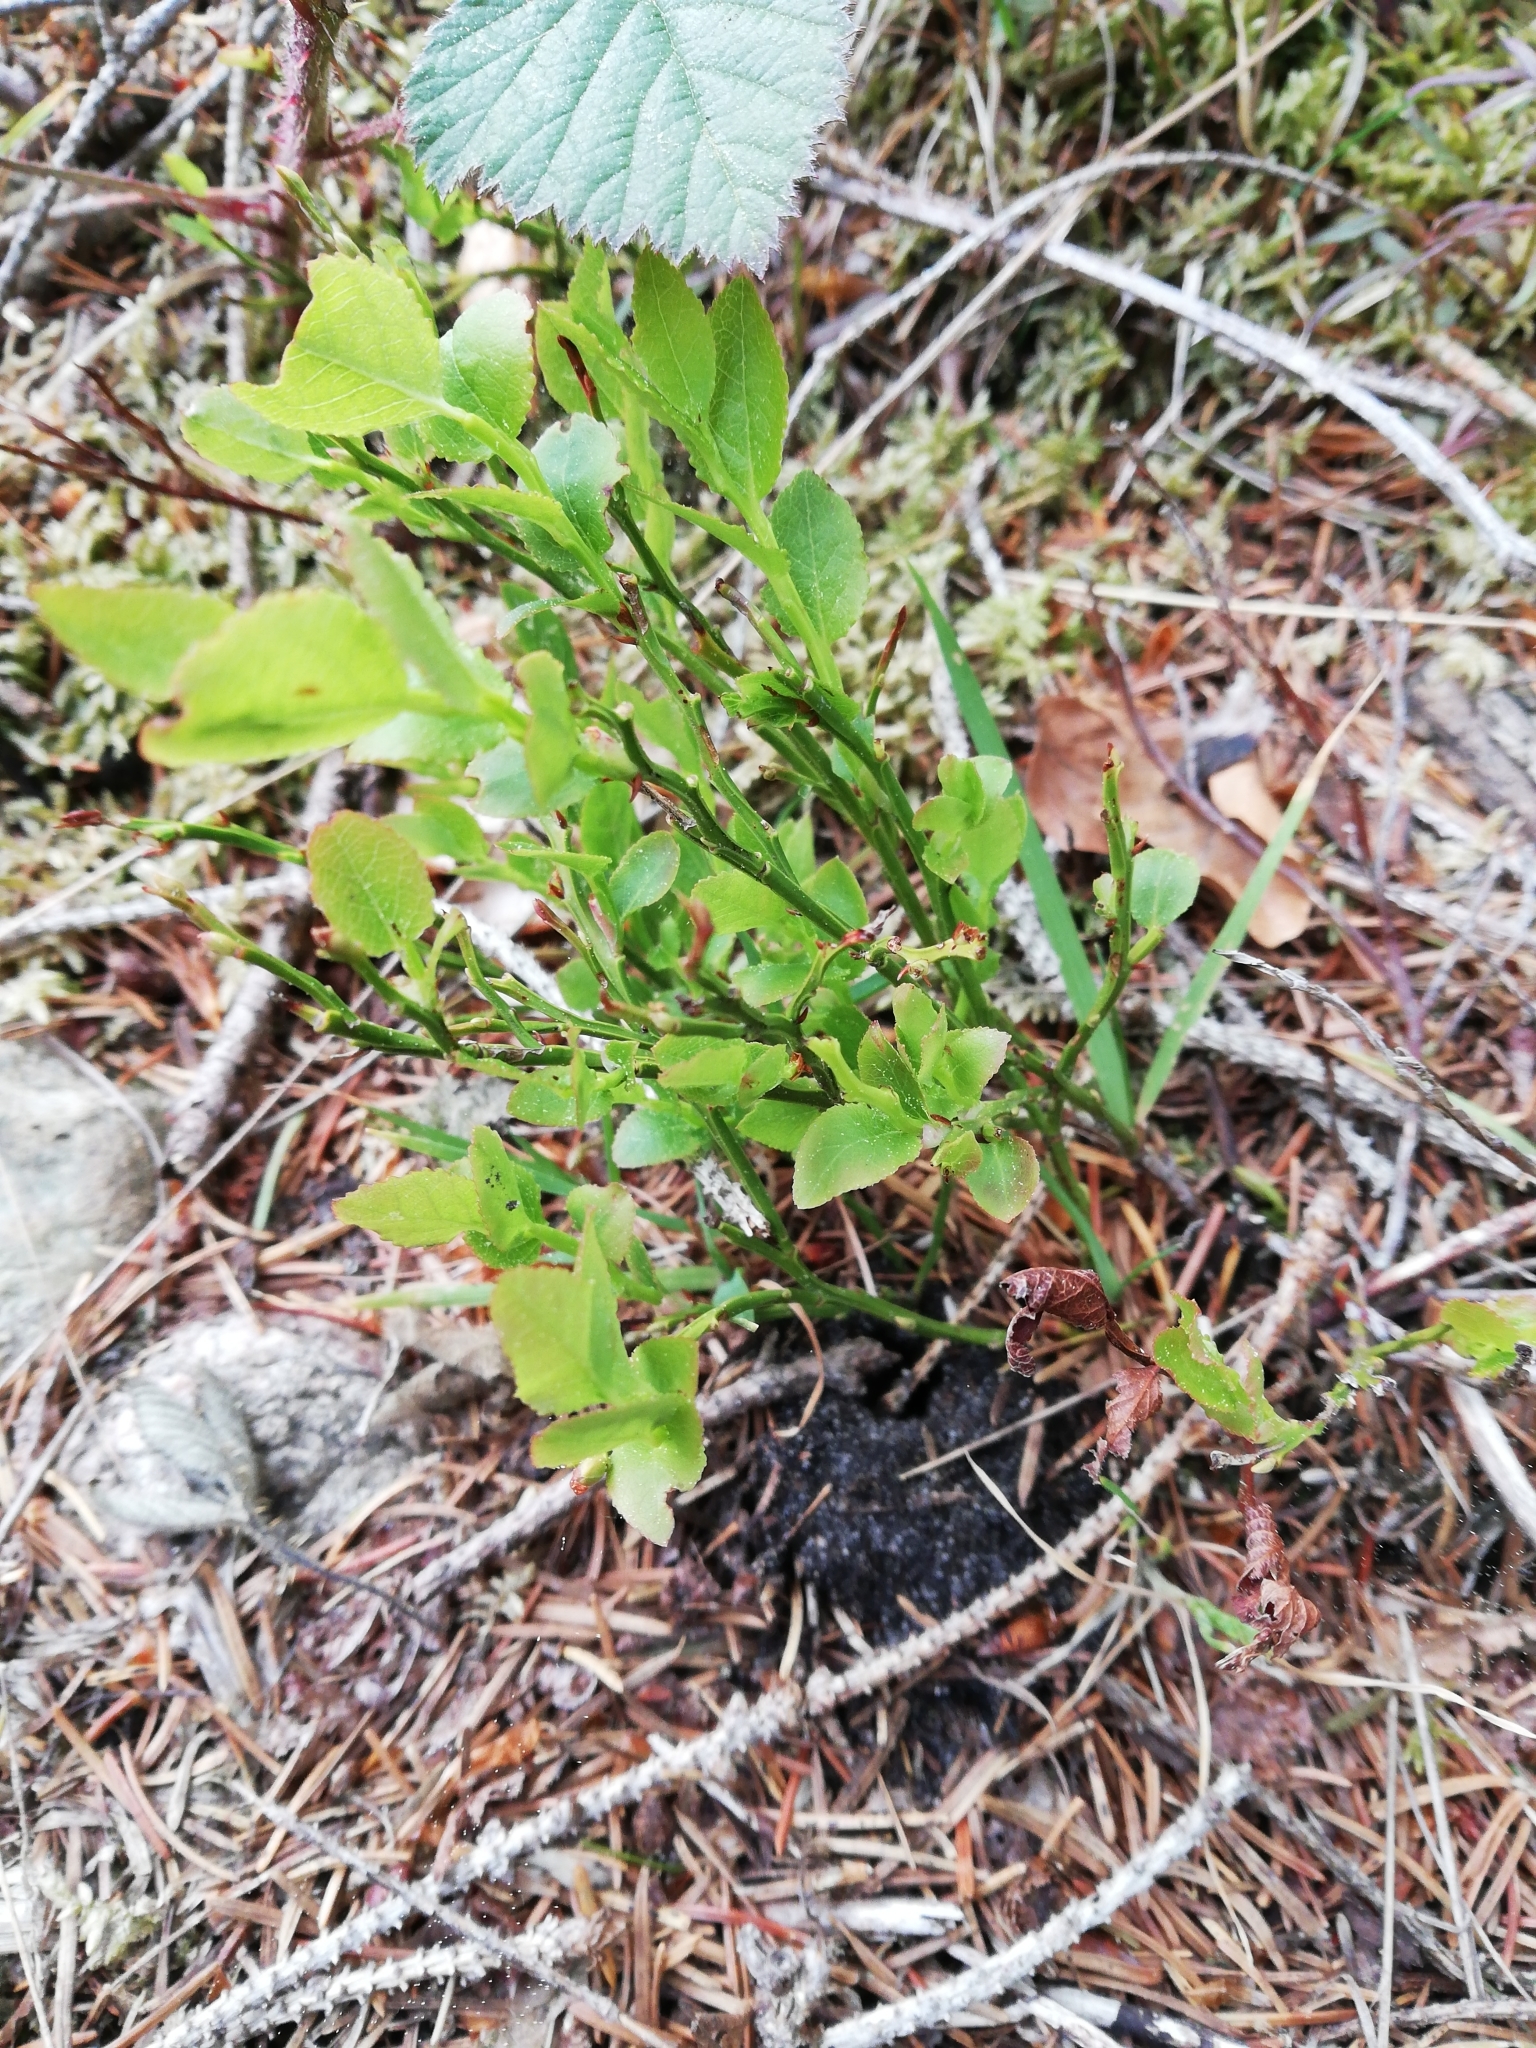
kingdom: Plantae
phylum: Tracheophyta
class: Magnoliopsida
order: Ericales
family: Ericaceae
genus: Vaccinium
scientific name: Vaccinium myrtillus
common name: Bilberry
